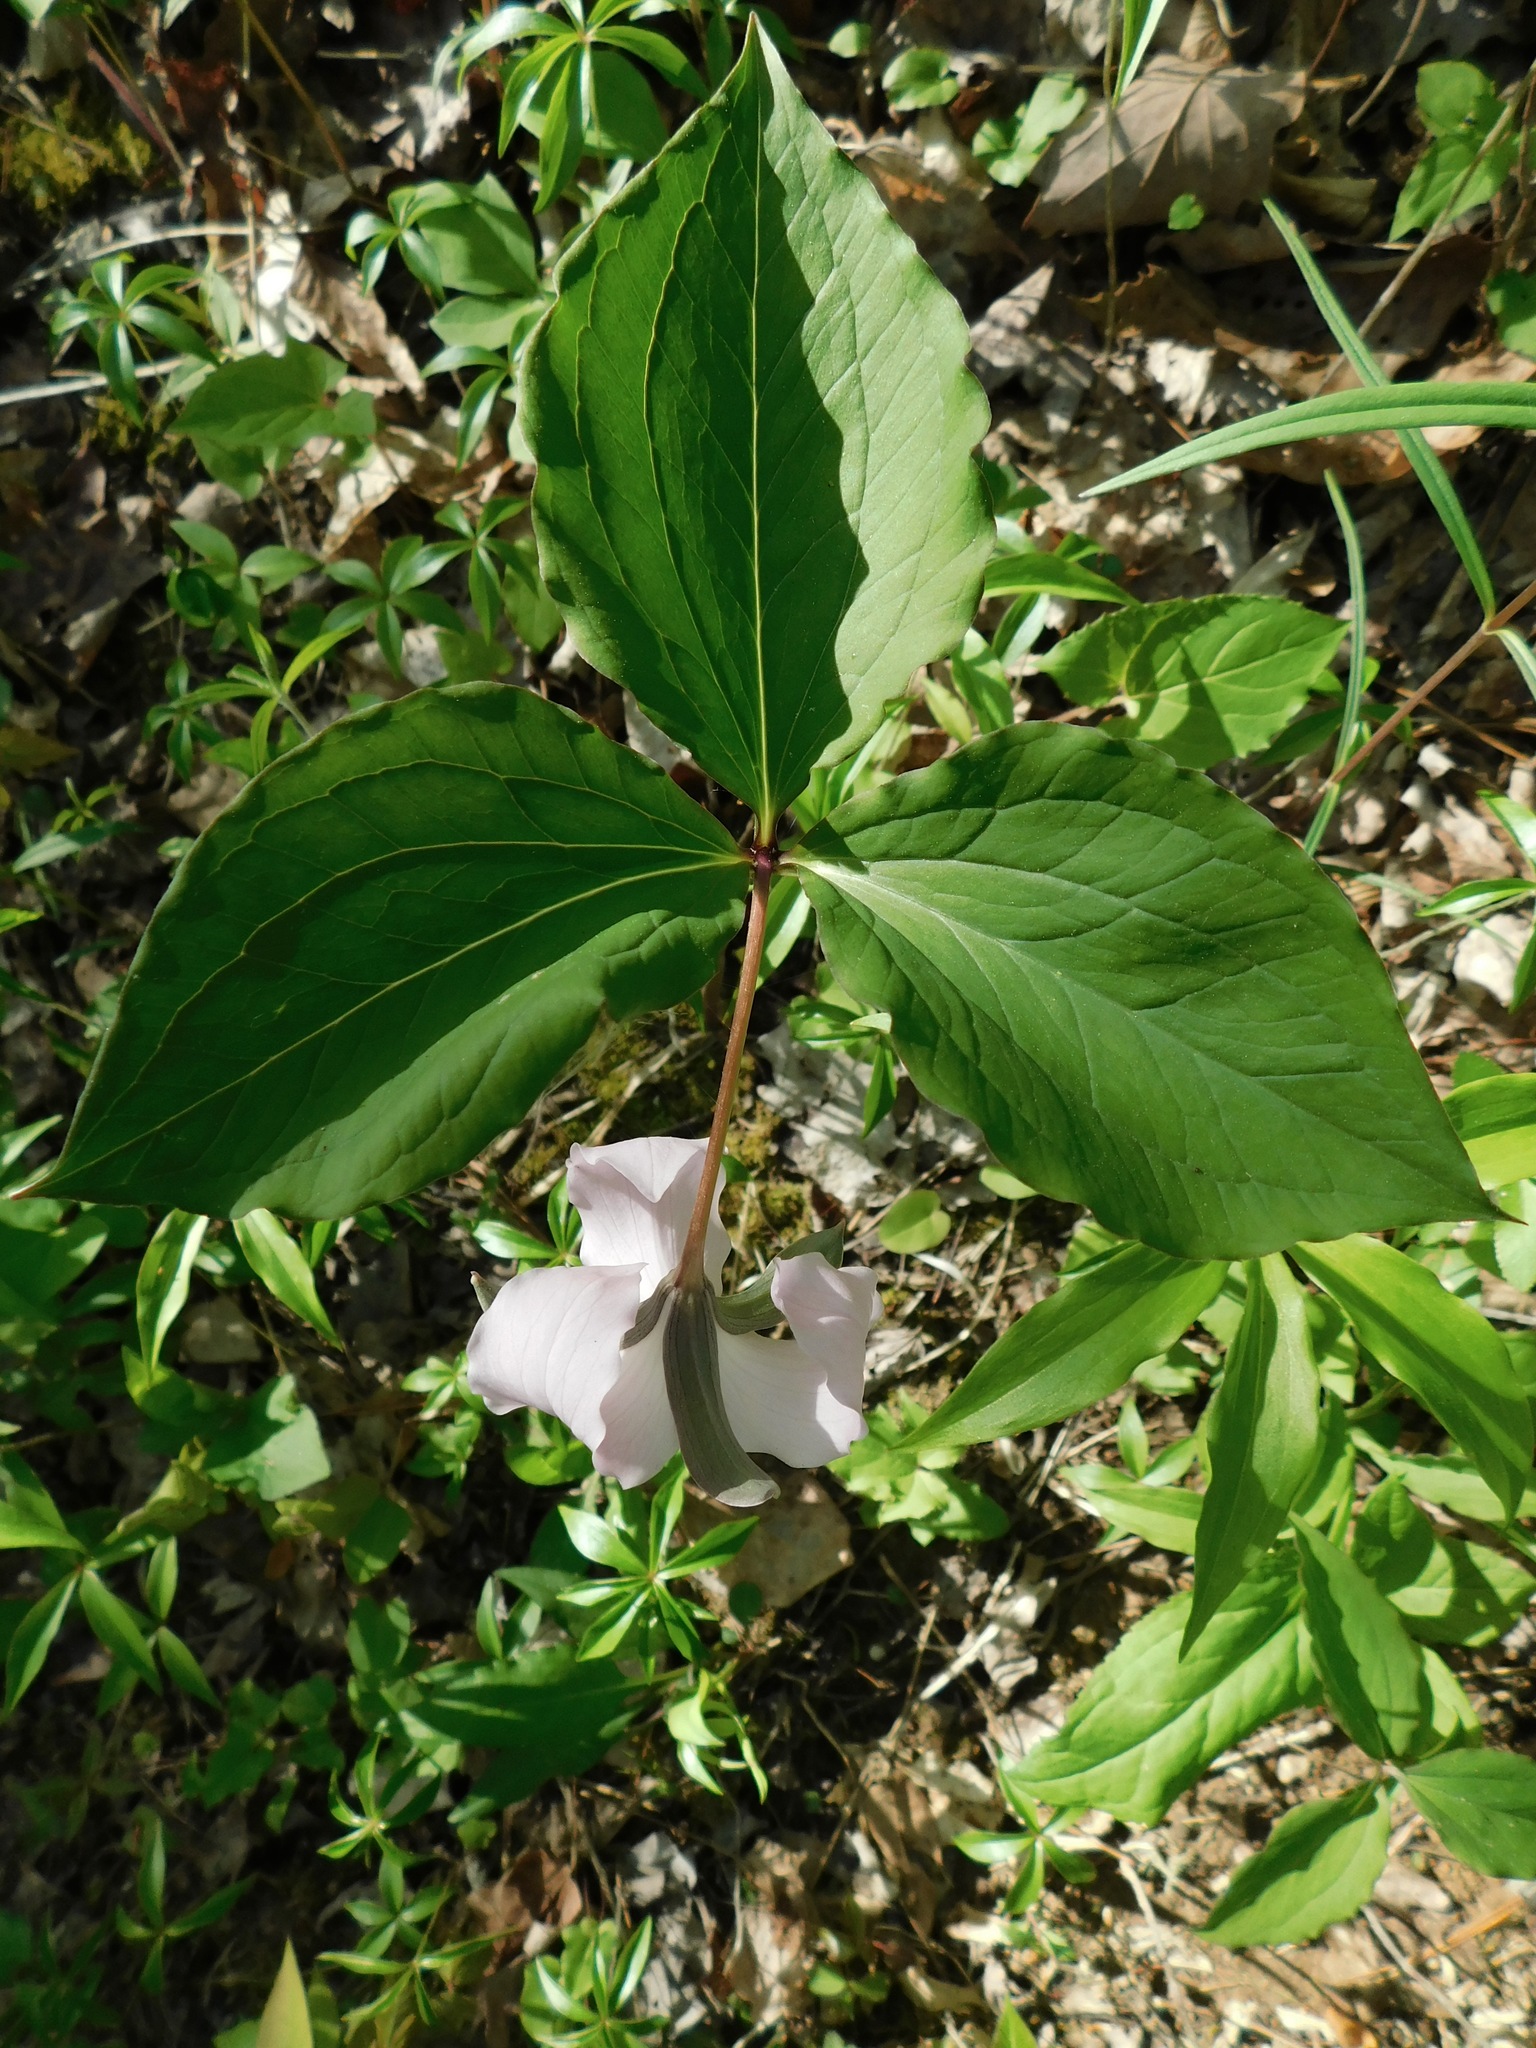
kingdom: Plantae
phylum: Tracheophyta
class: Liliopsida
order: Liliales
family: Melanthiaceae
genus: Trillium
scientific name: Trillium catesbaei
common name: Bashful trillium
